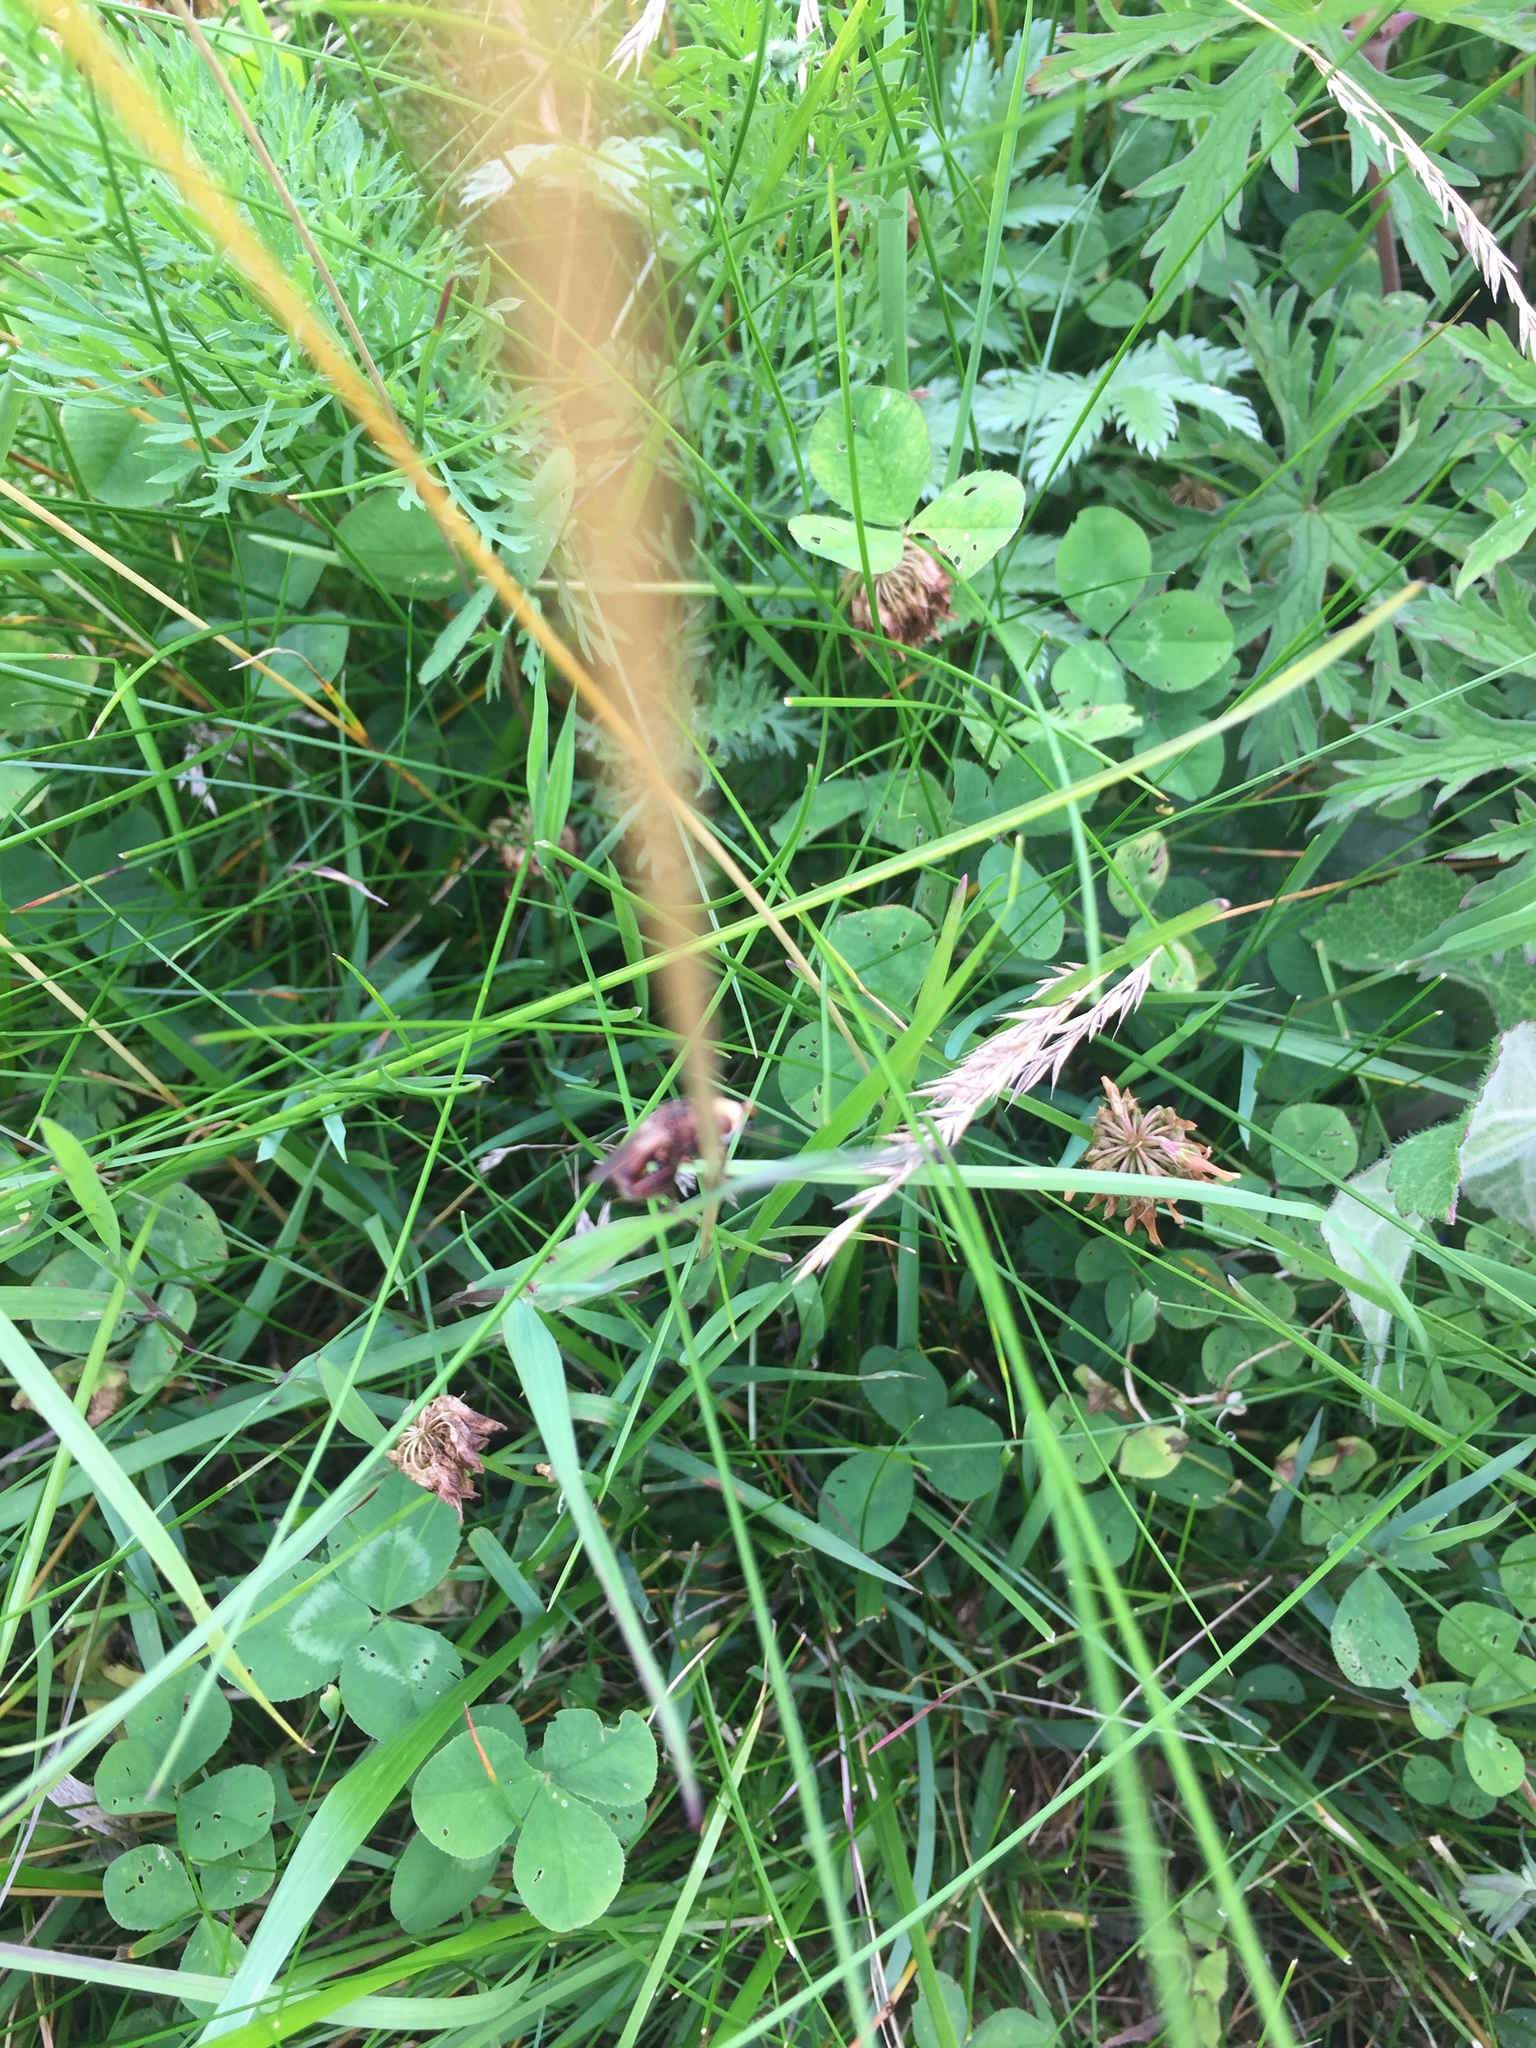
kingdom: Plantae
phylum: Tracheophyta
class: Magnoliopsida
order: Geraniales
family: Geraniaceae
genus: Geranium
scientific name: Geranium pratense
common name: Meadow crane's-bill
